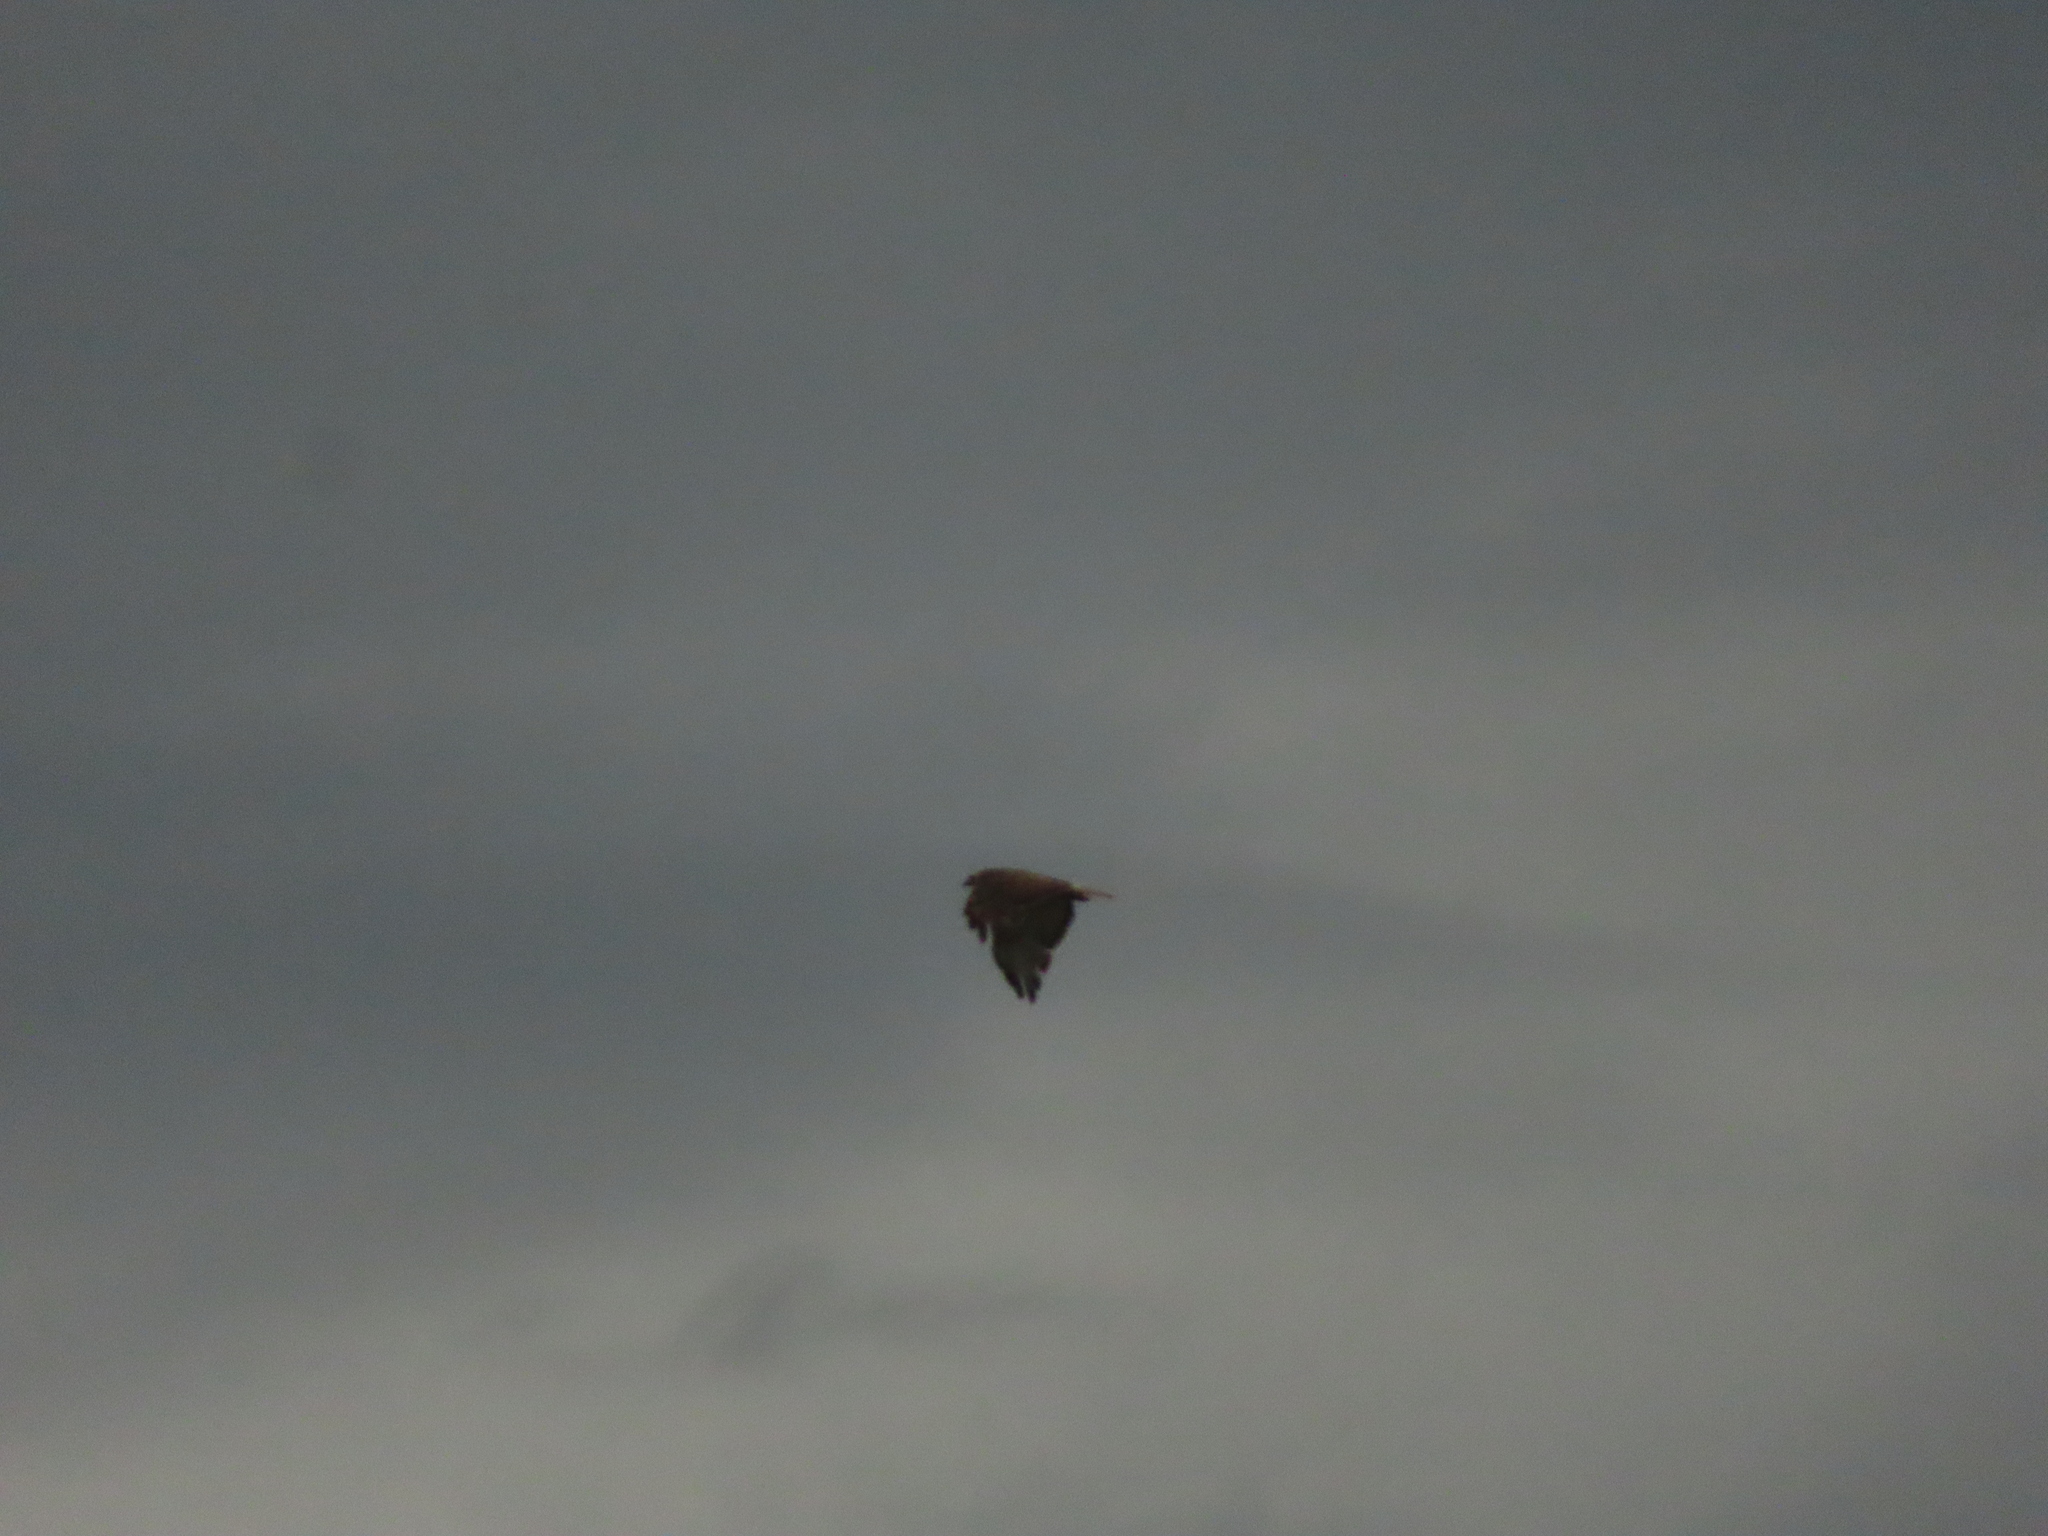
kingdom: Animalia
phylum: Chordata
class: Aves
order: Accipitriformes
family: Accipitridae
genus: Buteo
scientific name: Buteo jamaicensis
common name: Red-tailed hawk
